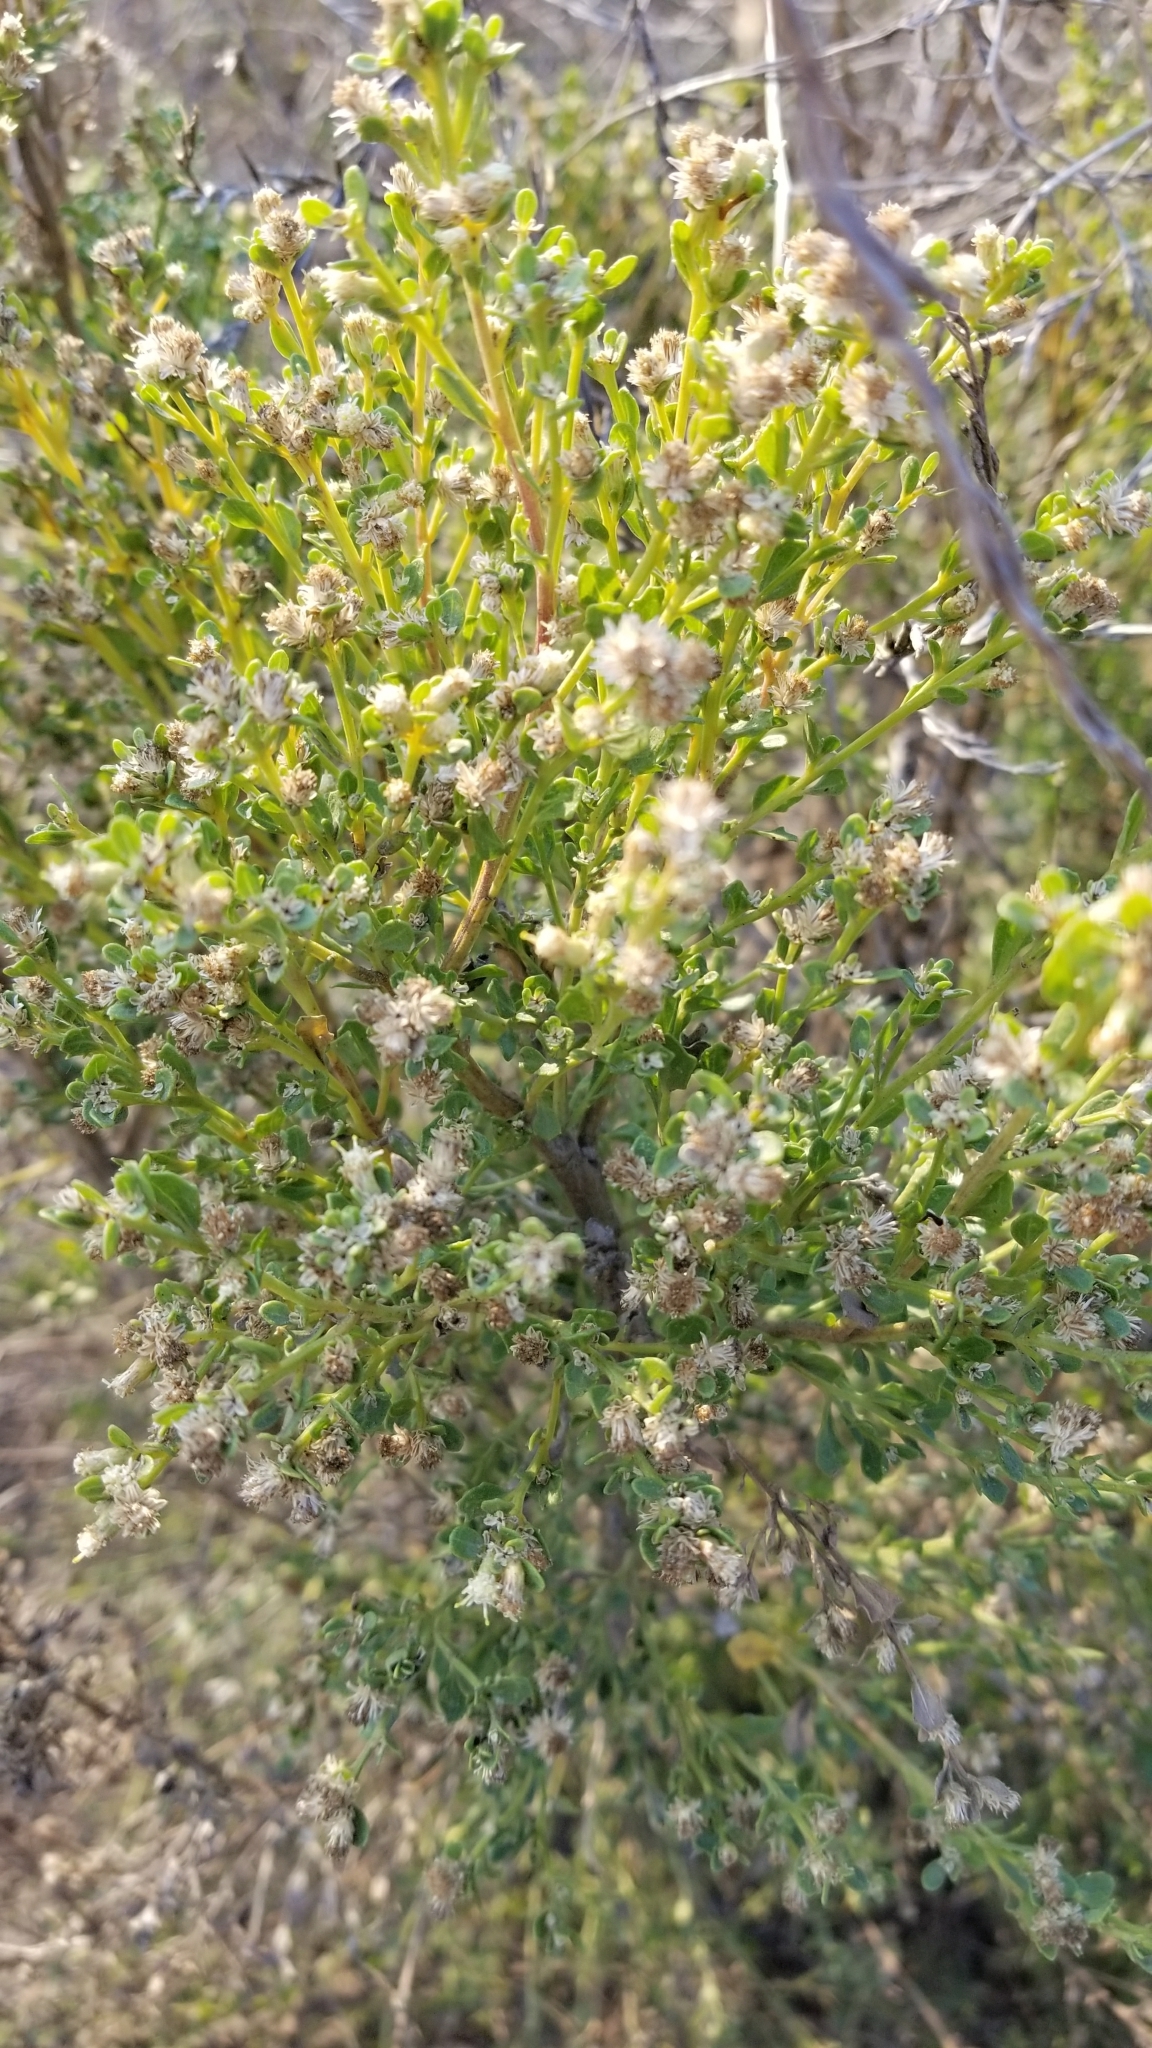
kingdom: Plantae
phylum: Tracheophyta
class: Magnoliopsida
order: Asterales
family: Asteraceae
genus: Baccharis
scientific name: Baccharis pilularis
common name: Coyotebrush
